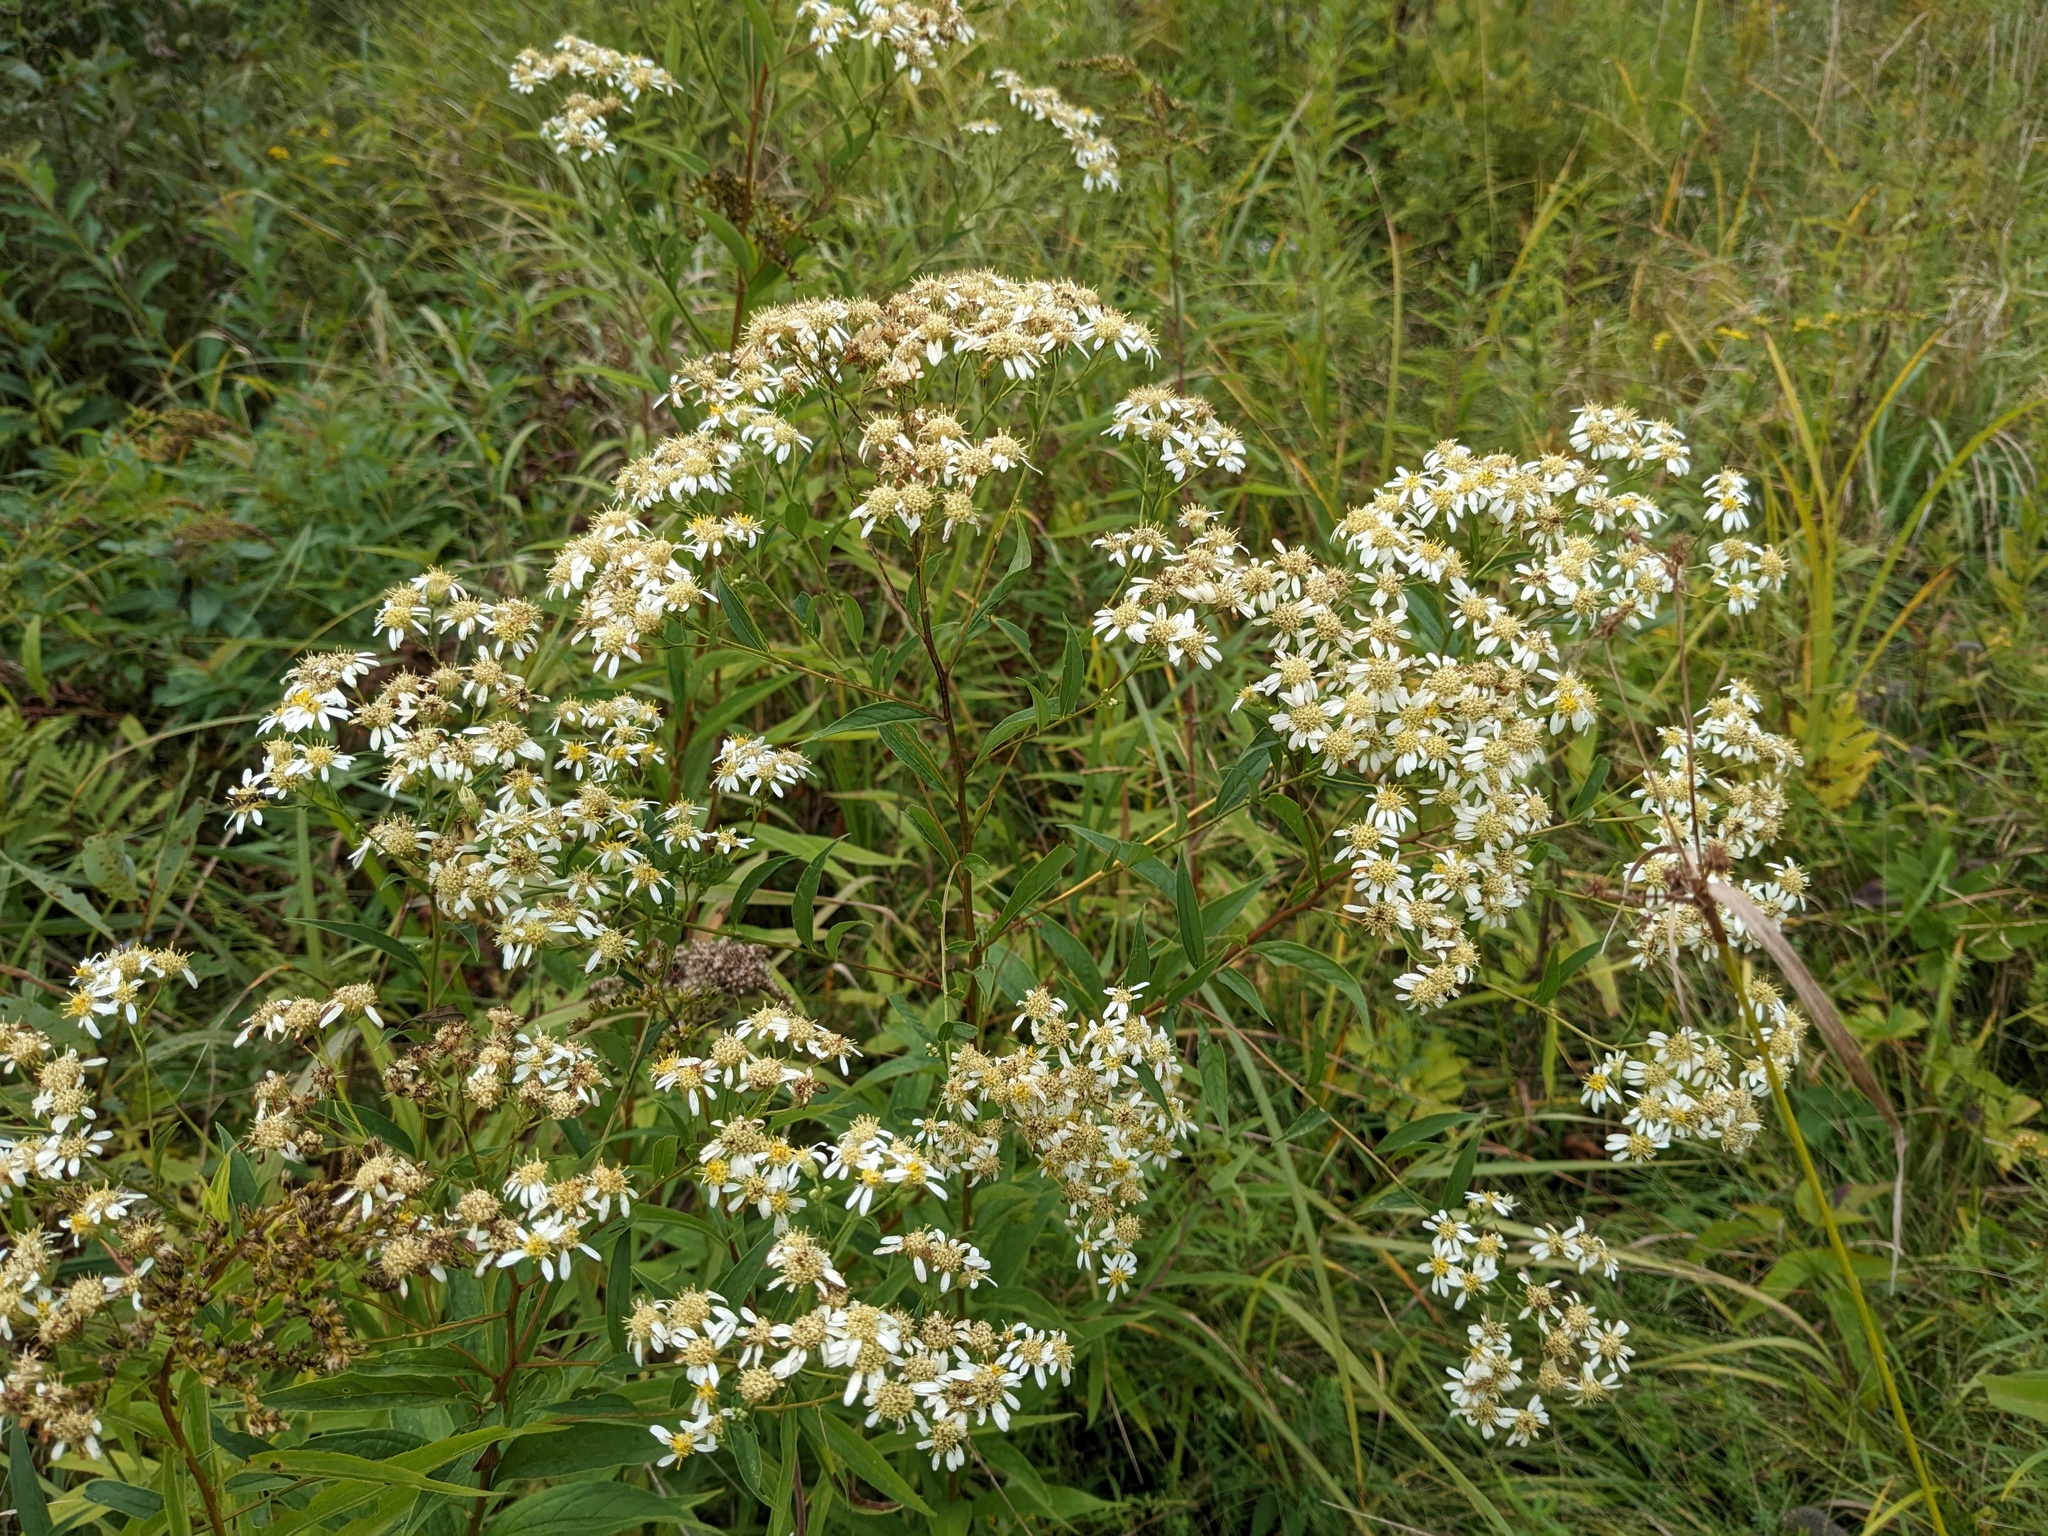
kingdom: Plantae
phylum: Tracheophyta
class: Magnoliopsida
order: Asterales
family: Asteraceae
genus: Doellingeria
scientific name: Doellingeria umbellata
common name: Flat-top white aster
